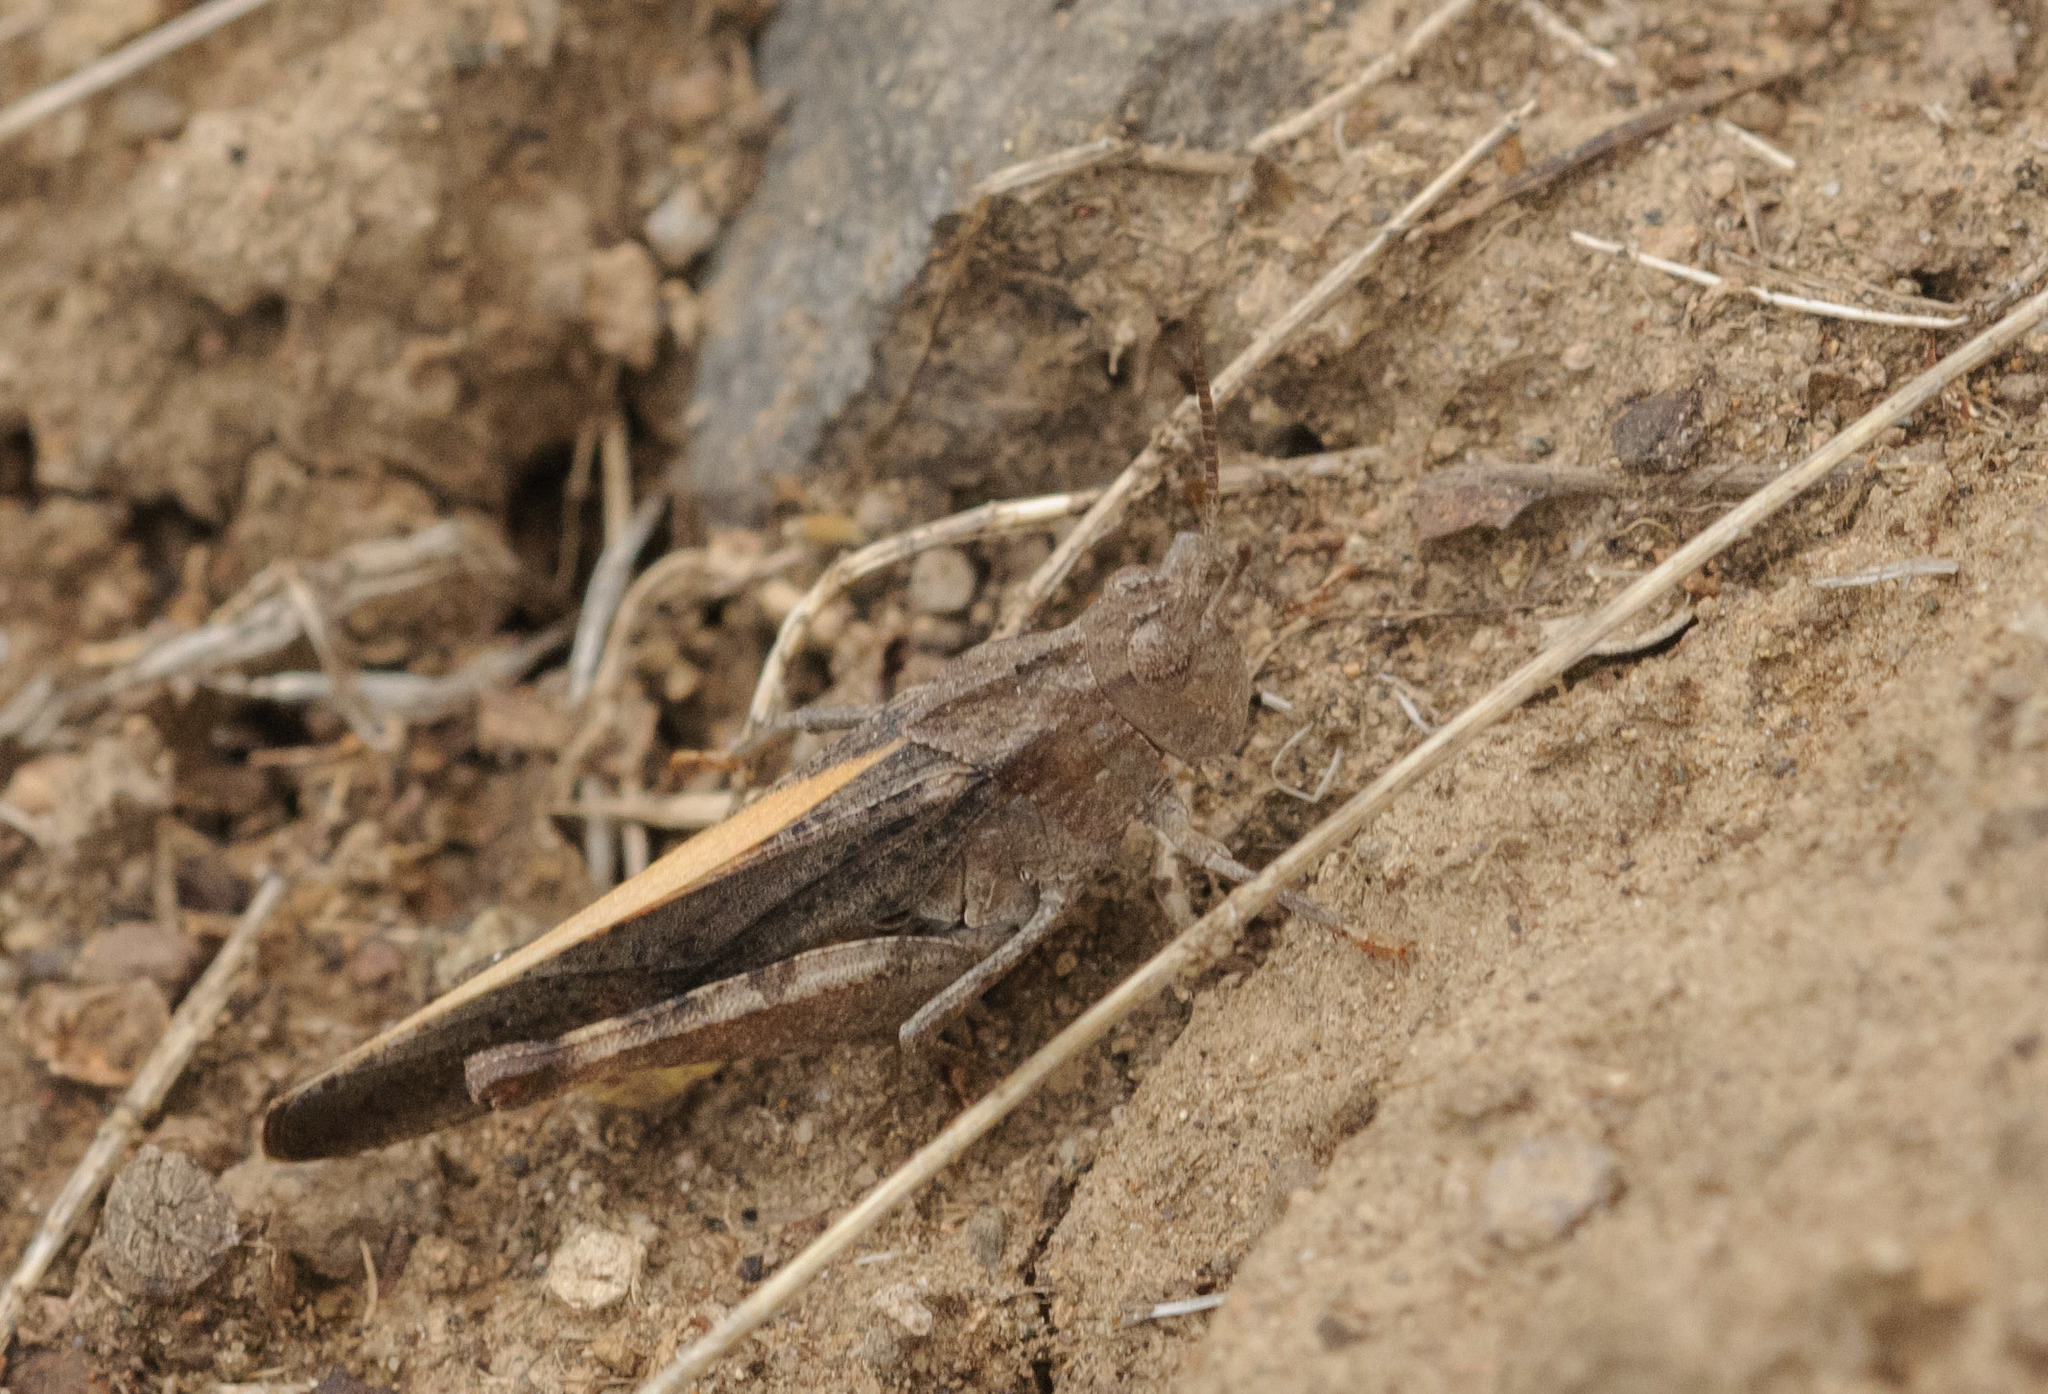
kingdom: Animalia
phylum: Arthropoda
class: Insecta
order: Orthoptera
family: Acrididae
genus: Arphia
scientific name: Arphia conspersa
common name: Speckle-winged rangeland grasshopper
